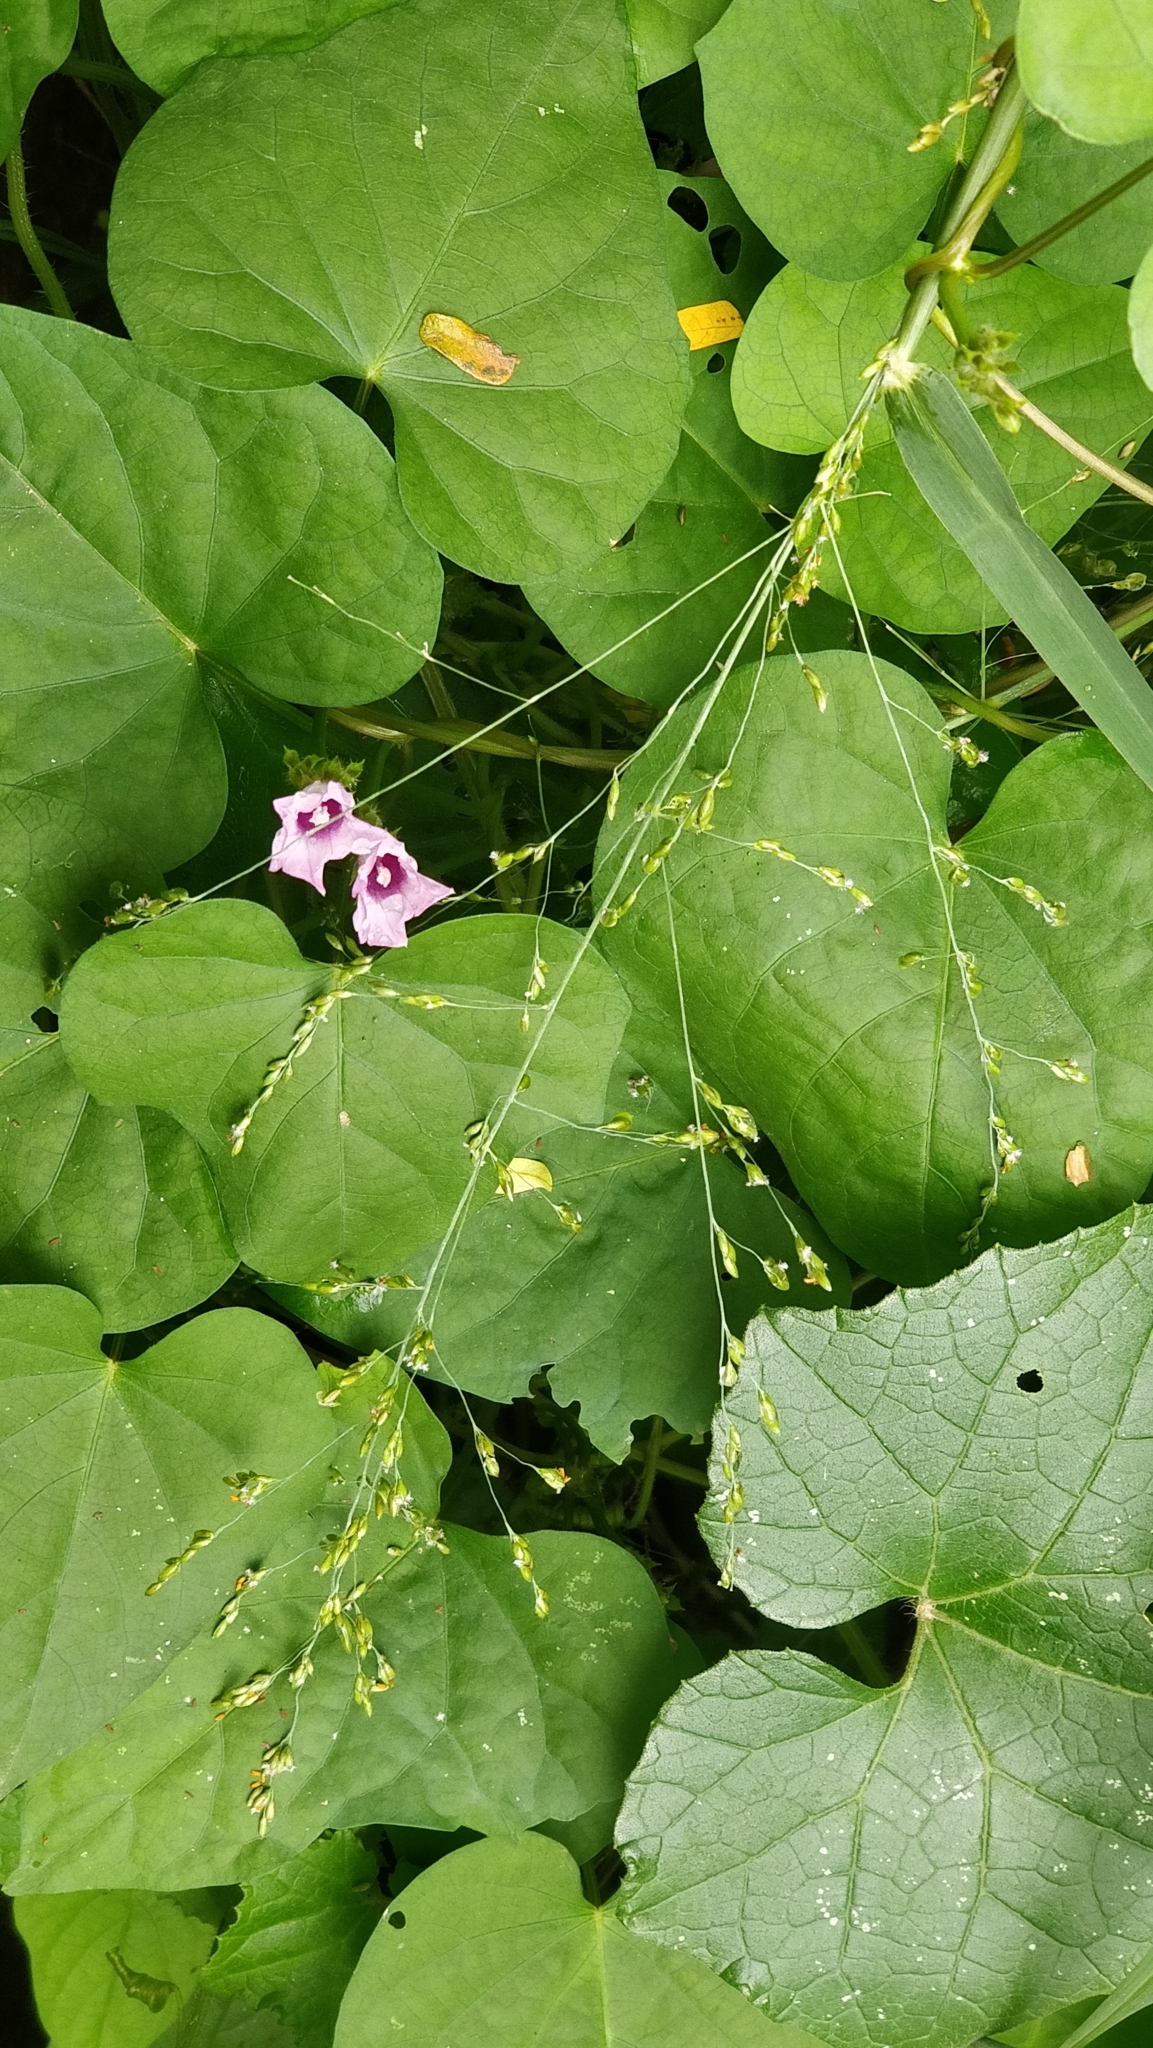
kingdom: Plantae
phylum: Tracheophyta
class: Magnoliopsida
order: Solanales
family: Convolvulaceae
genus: Ipomoea
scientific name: Ipomoea triloba
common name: Little-bell
